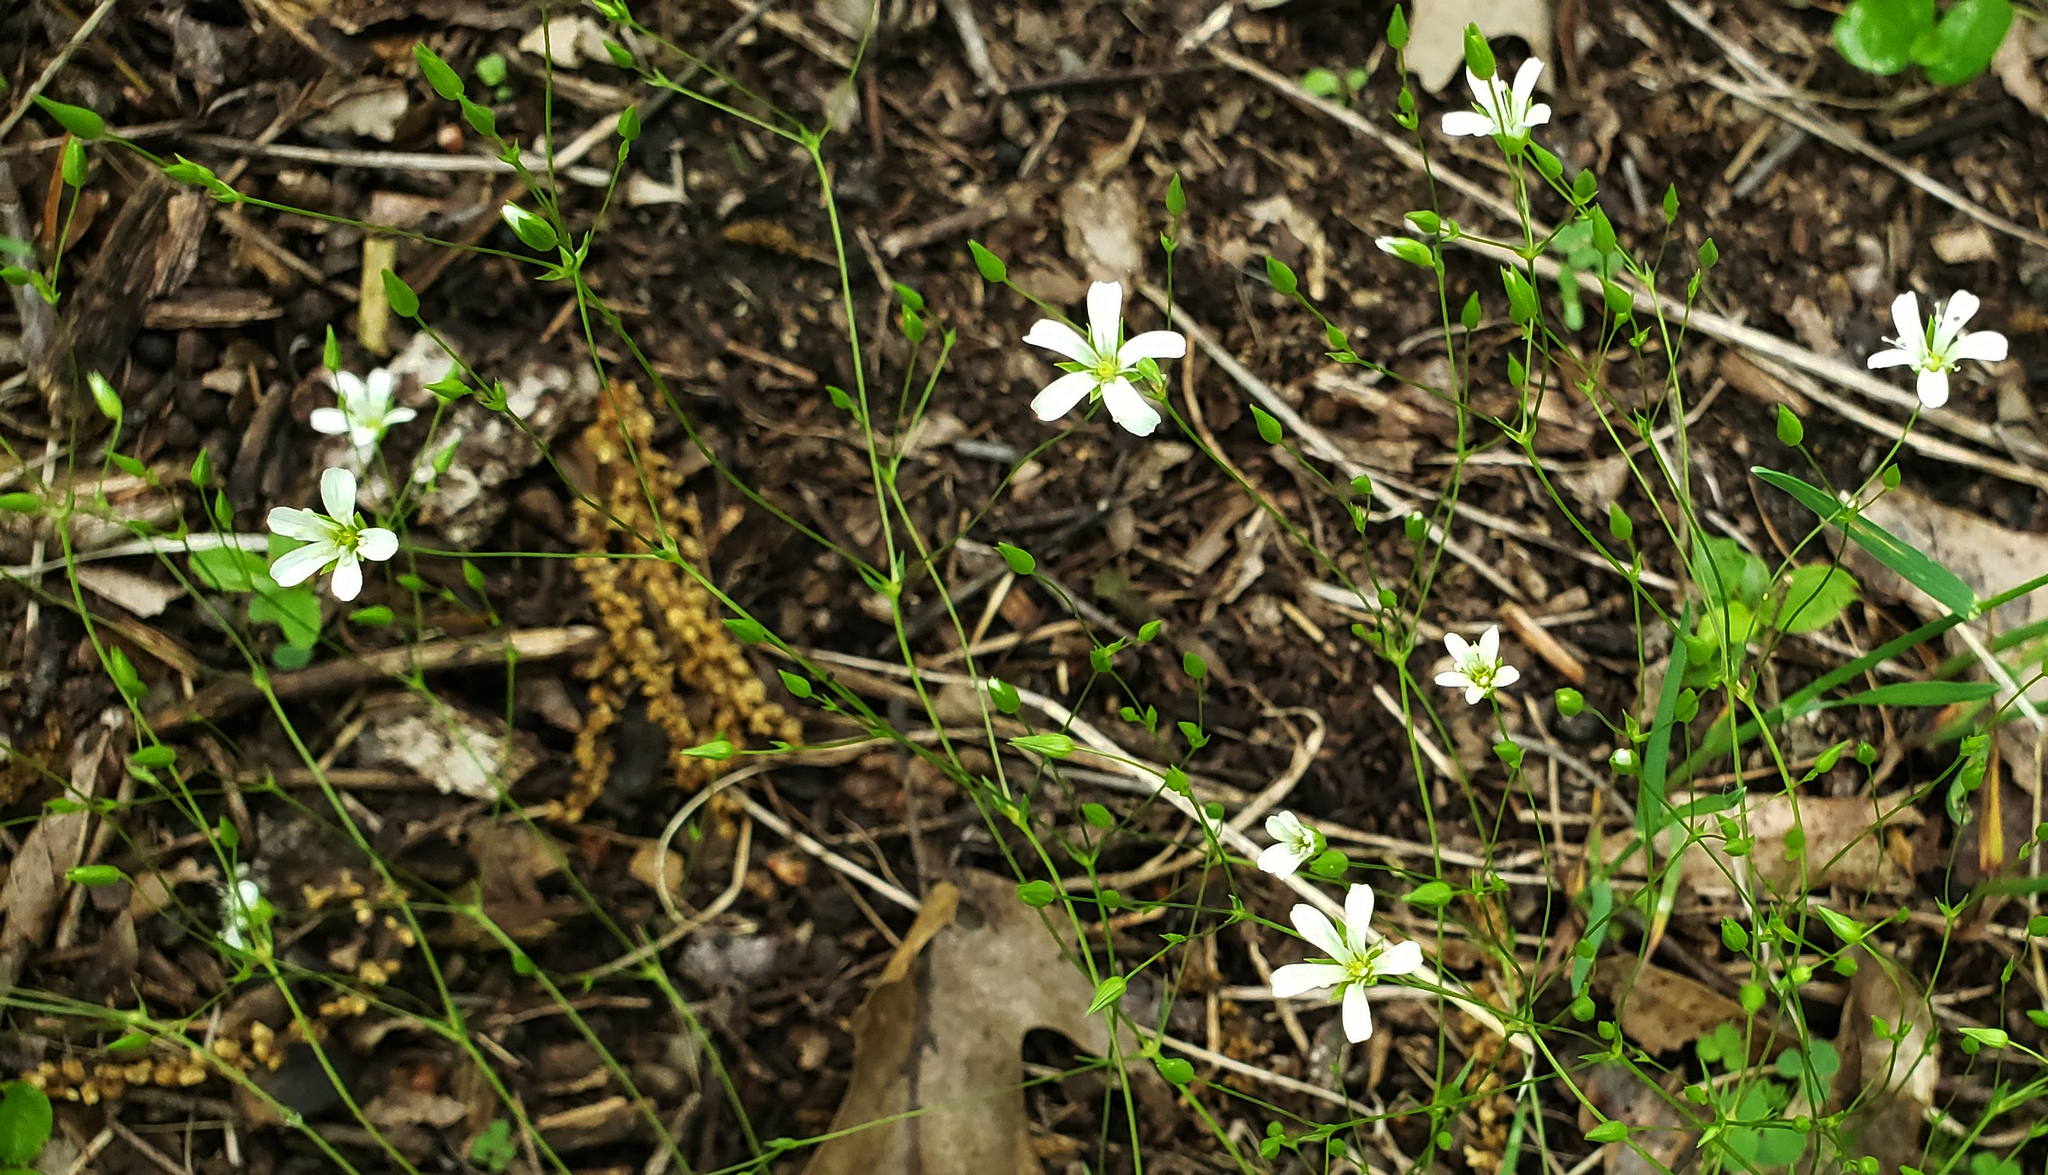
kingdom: Plantae
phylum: Tracheophyta
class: Magnoliopsida
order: Caryophyllales
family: Caryophyllaceae
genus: Sabulina
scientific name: Sabulina michauxii
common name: Michaux's stitchwort
